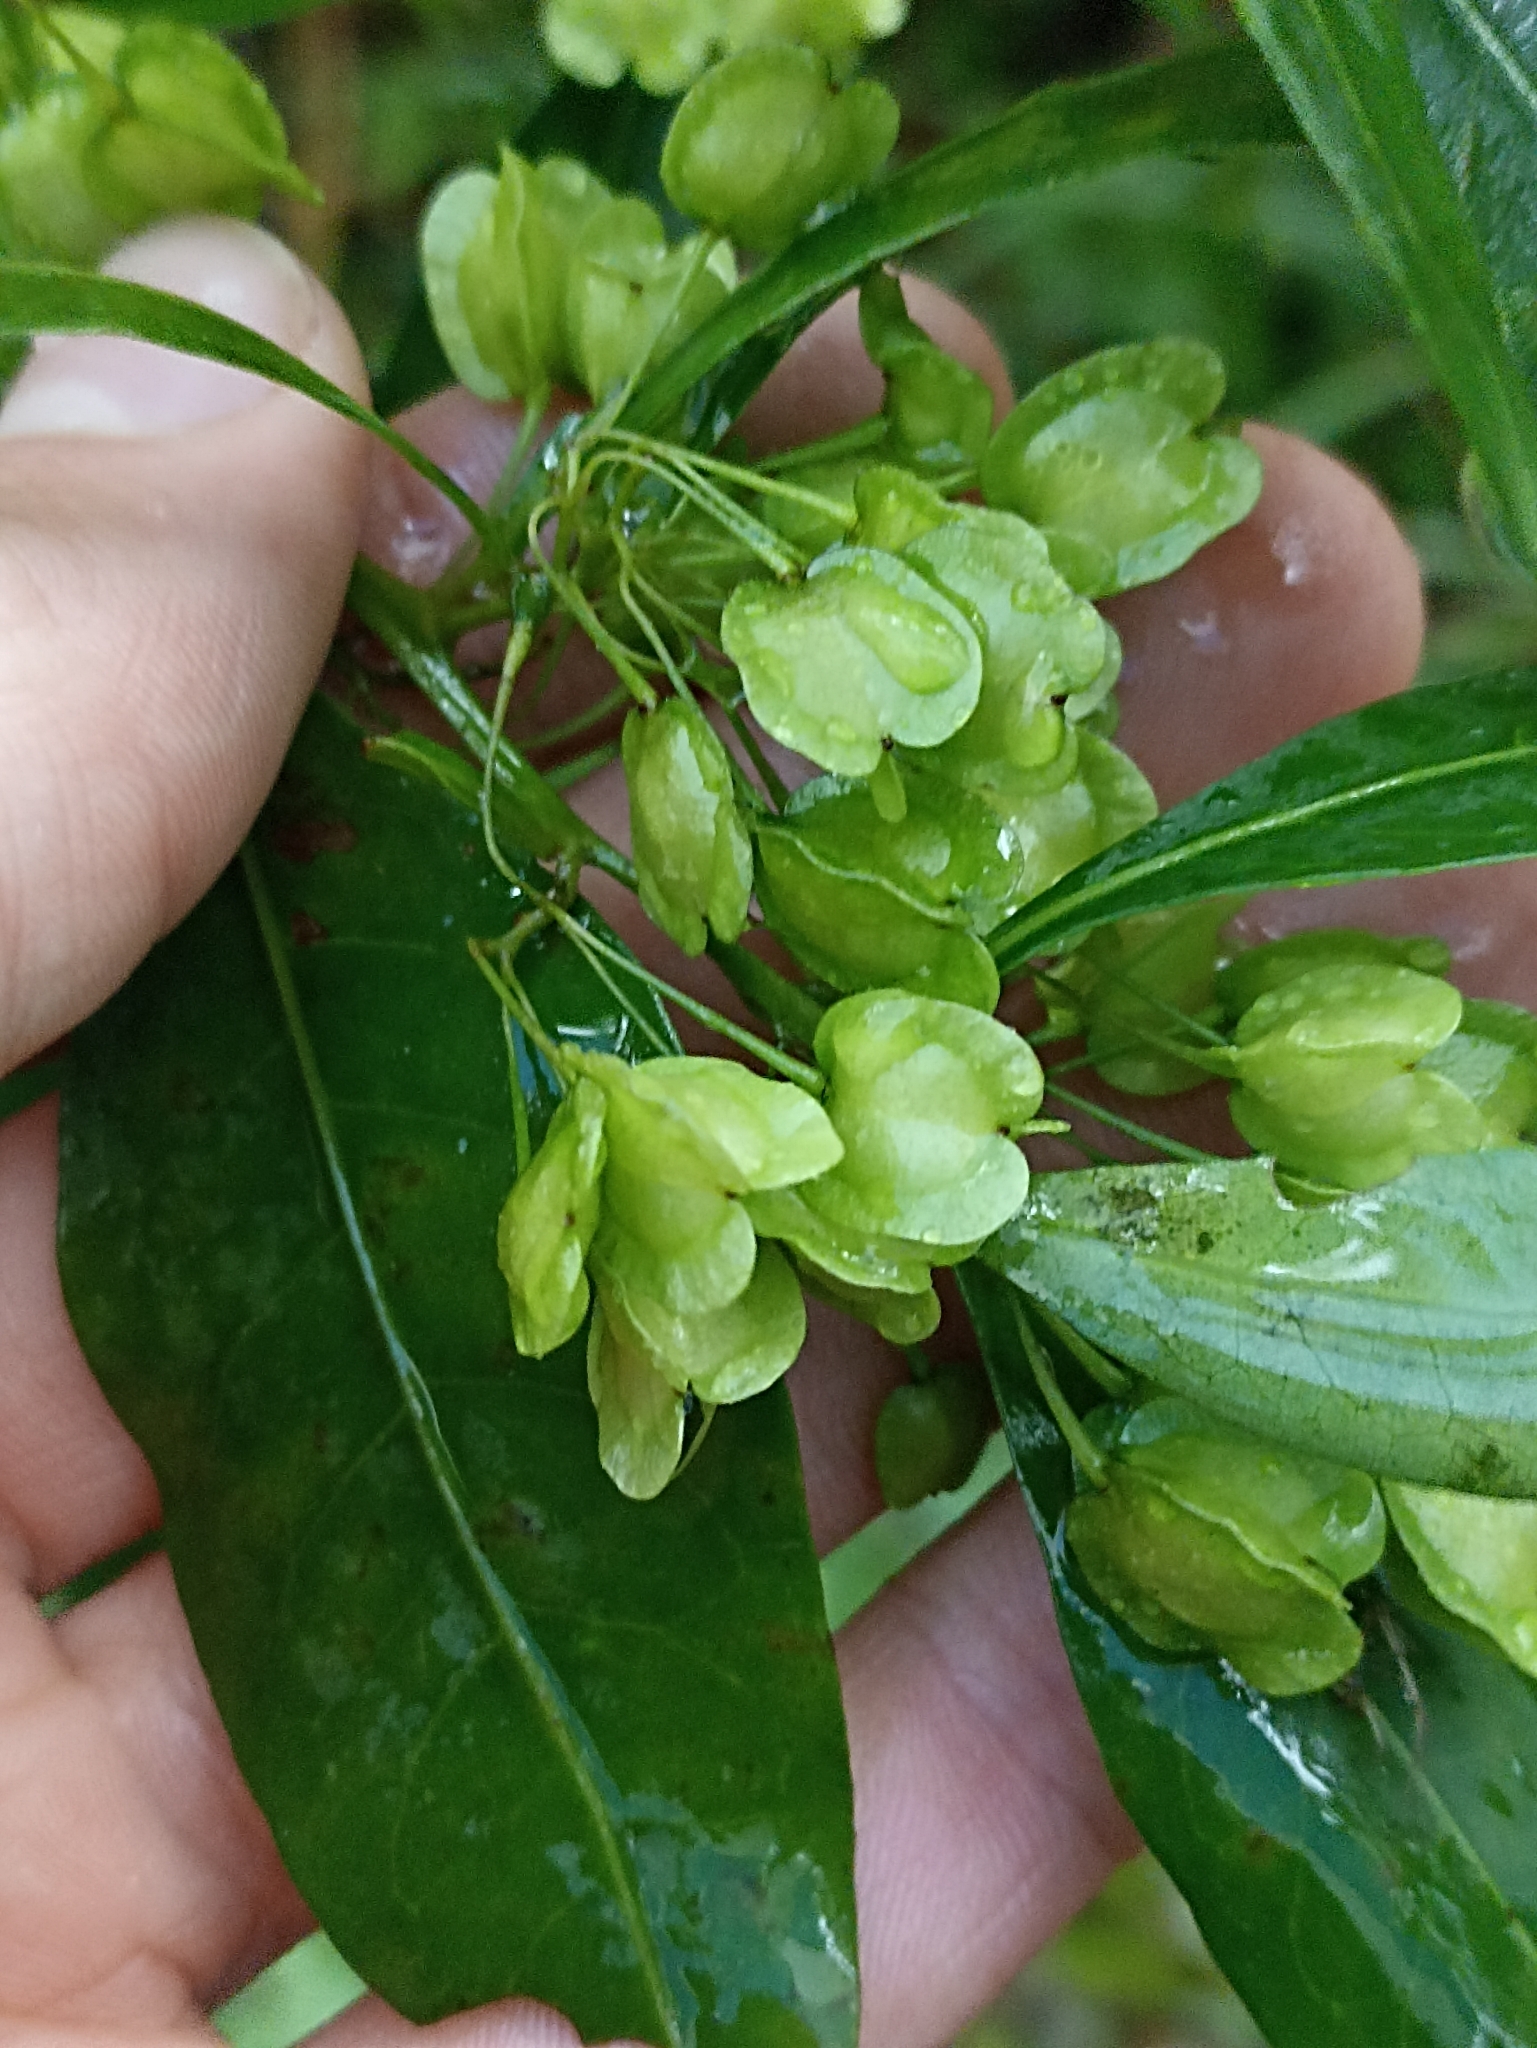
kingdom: Plantae
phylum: Tracheophyta
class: Magnoliopsida
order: Sapindales
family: Sapindaceae
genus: Dodonaea
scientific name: Dodonaea triquetra
